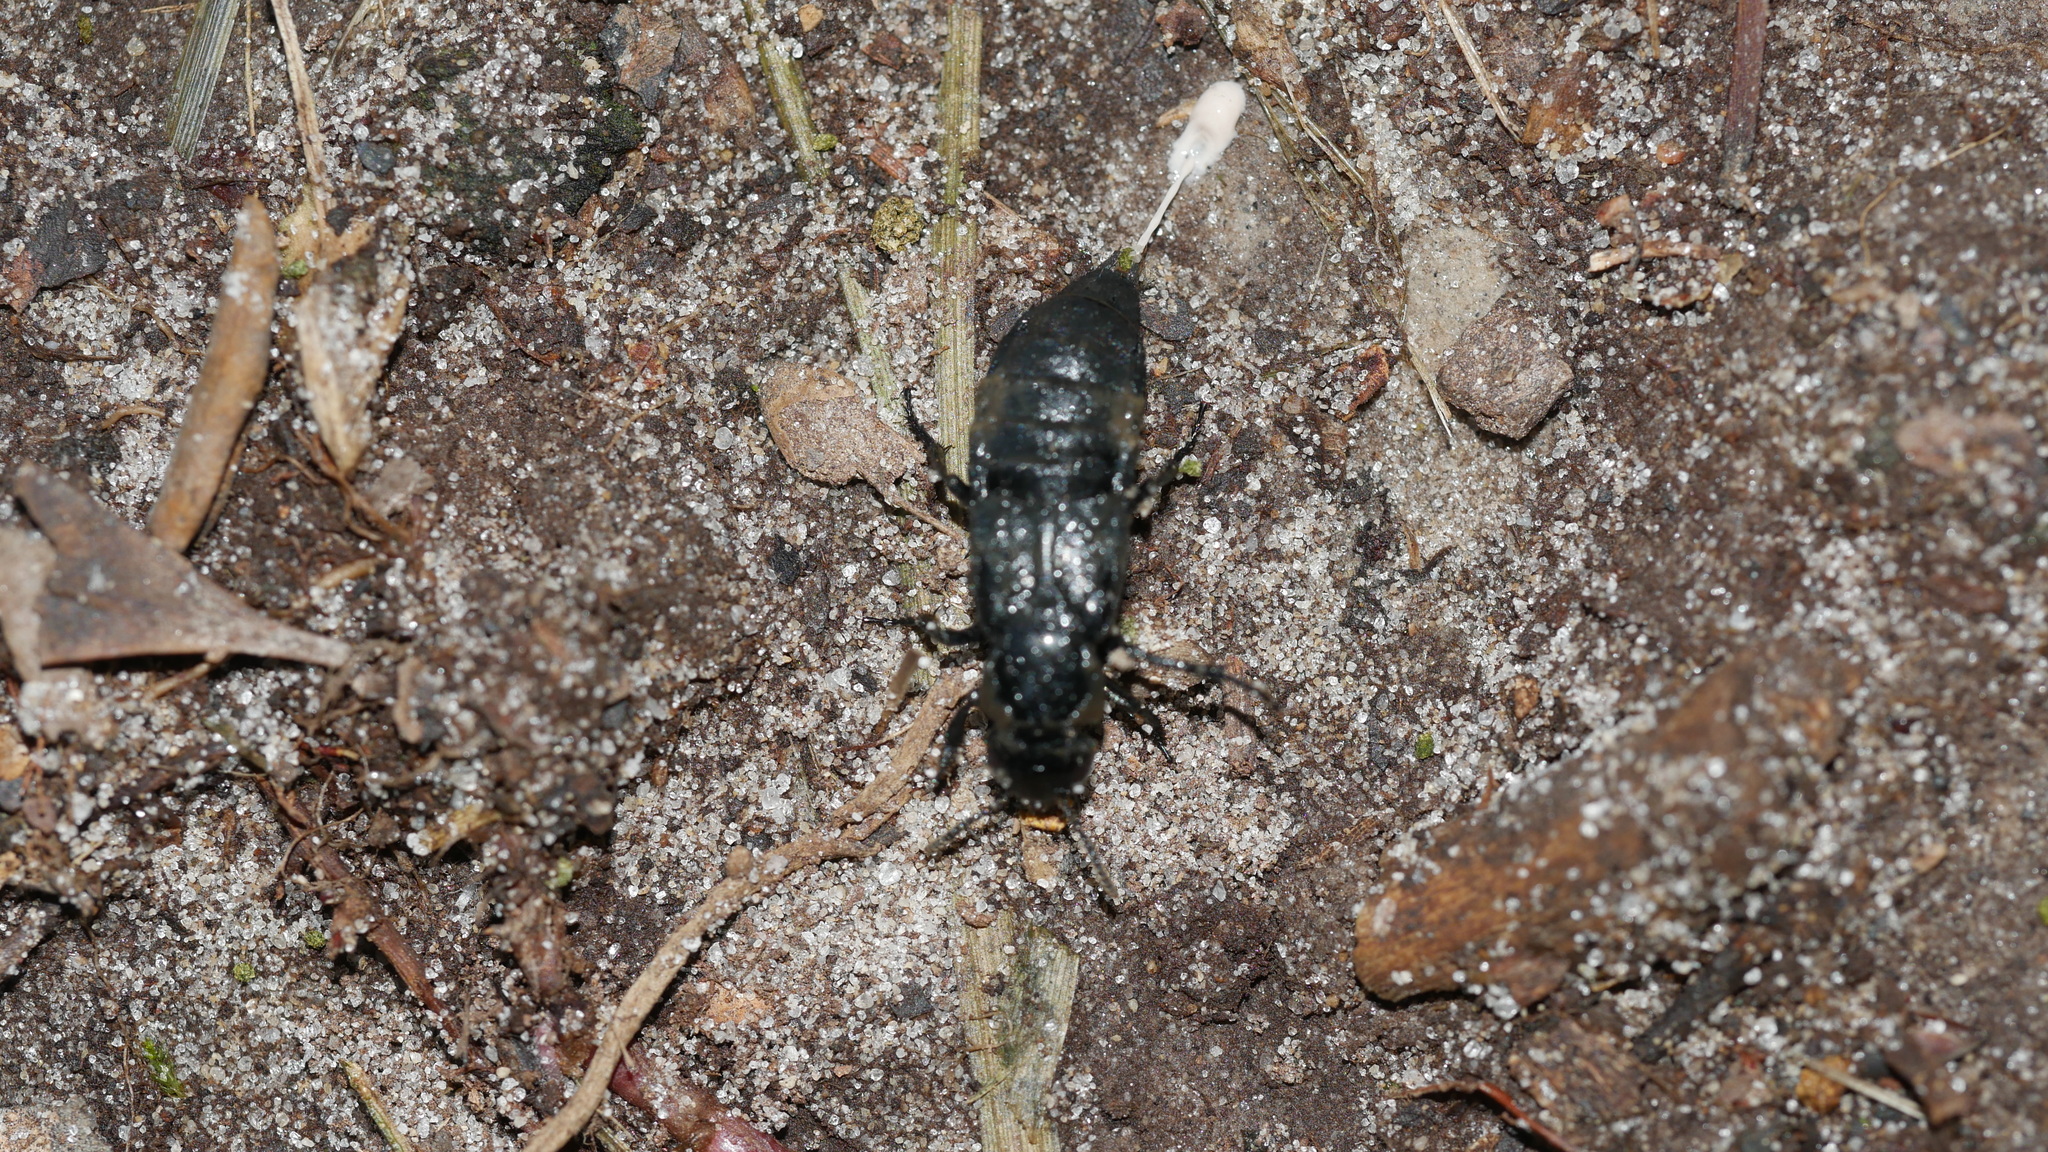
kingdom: Animalia
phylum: Arthropoda
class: Insecta
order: Coleoptera
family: Staphylinidae
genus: Creophilus
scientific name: Creophilus maxillosus
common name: Hairy rove beetle
